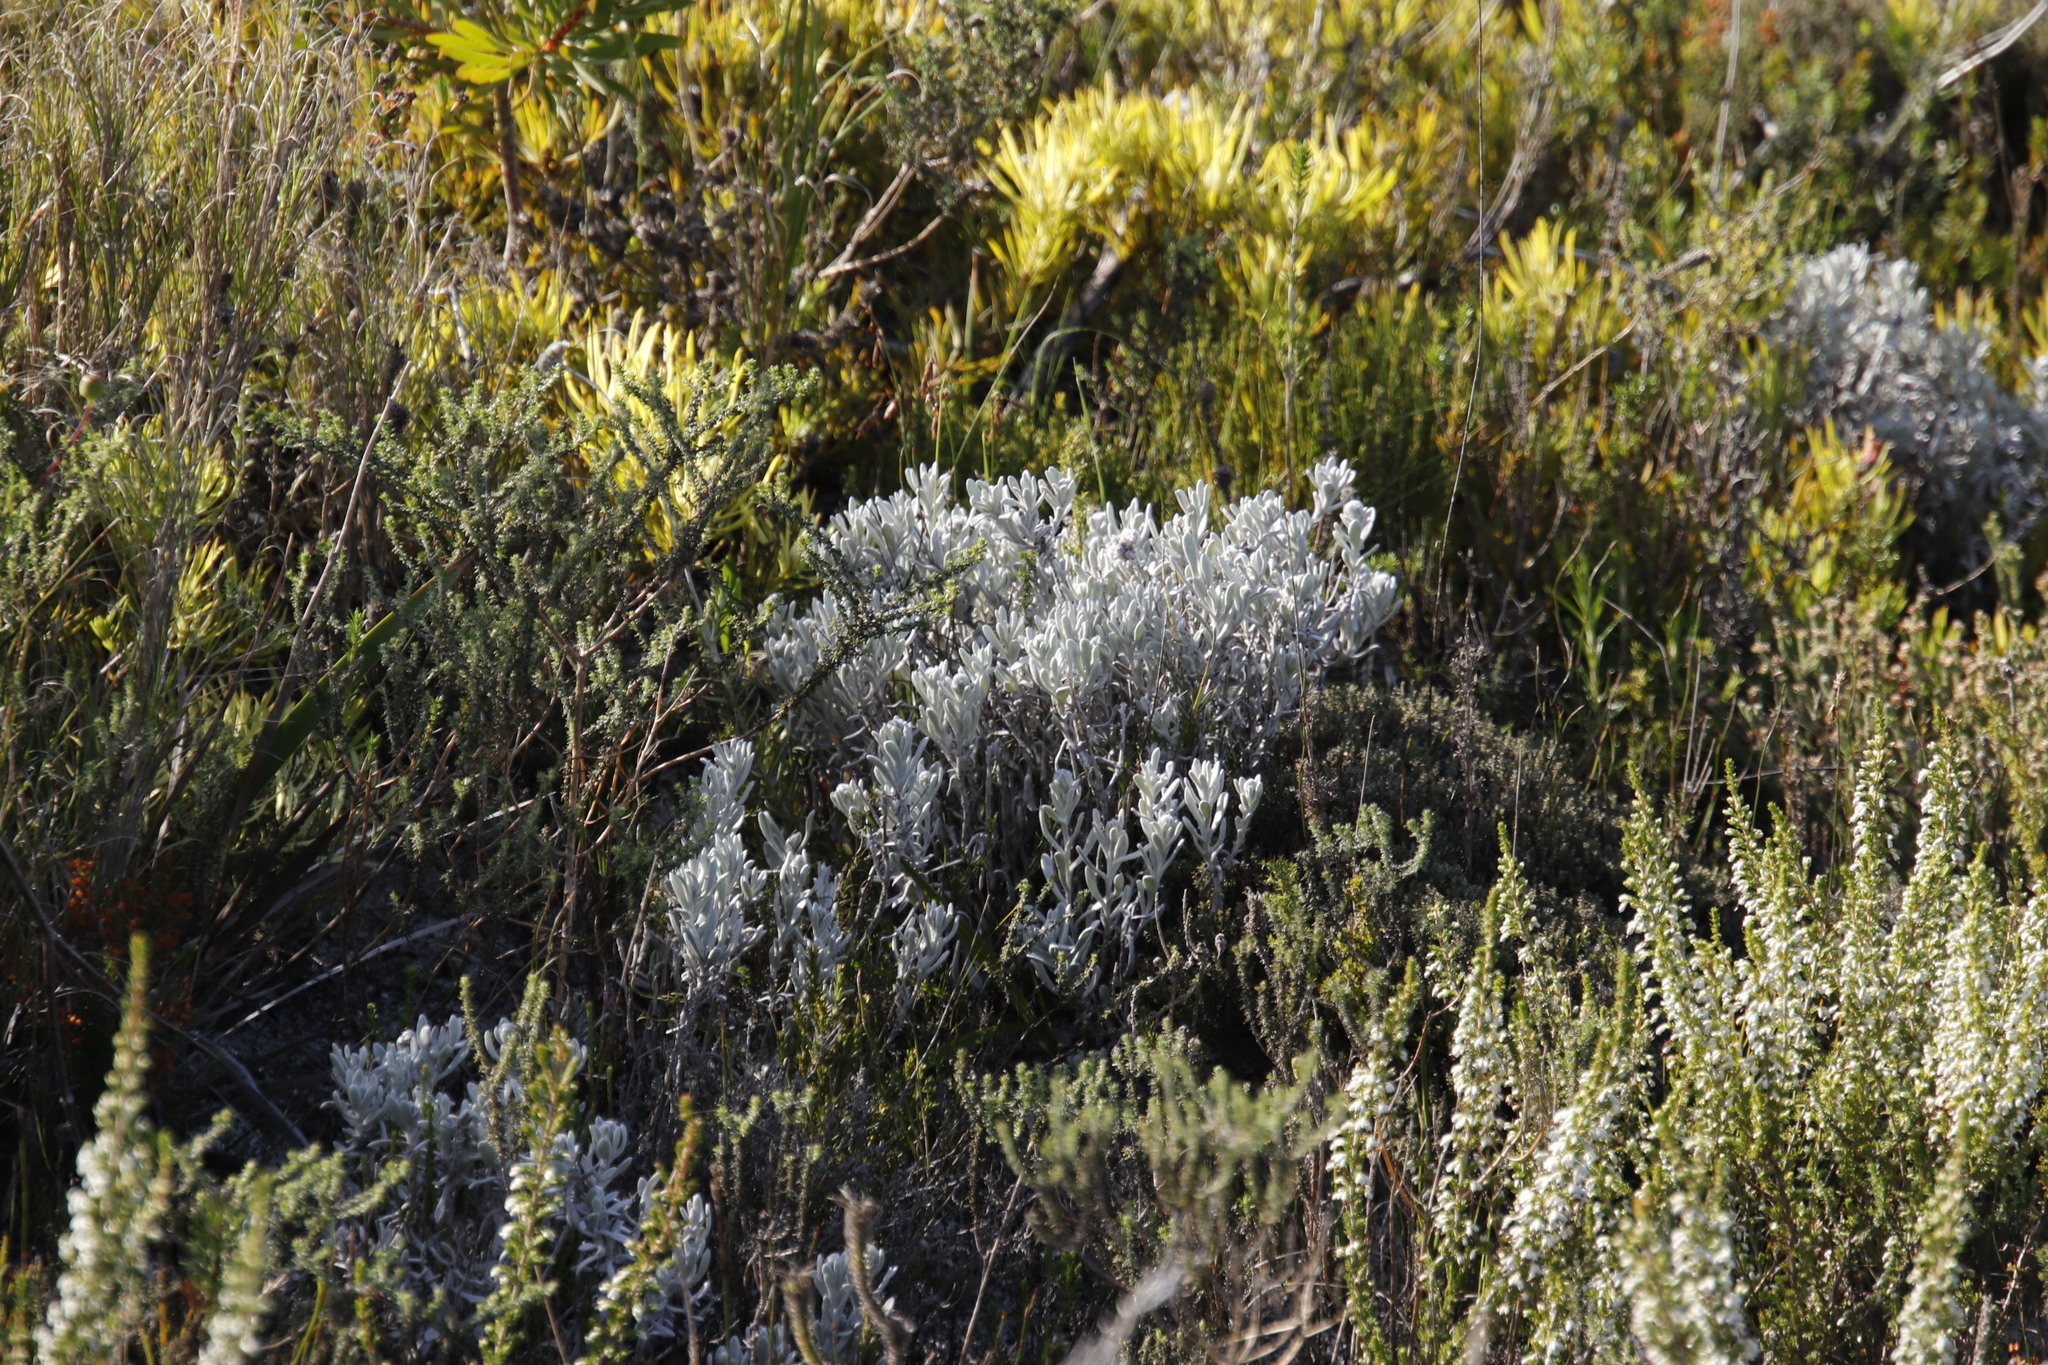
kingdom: Plantae
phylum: Tracheophyta
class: Magnoliopsida
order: Asterales
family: Asteraceae
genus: Petalacte
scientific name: Petalacte coronata
